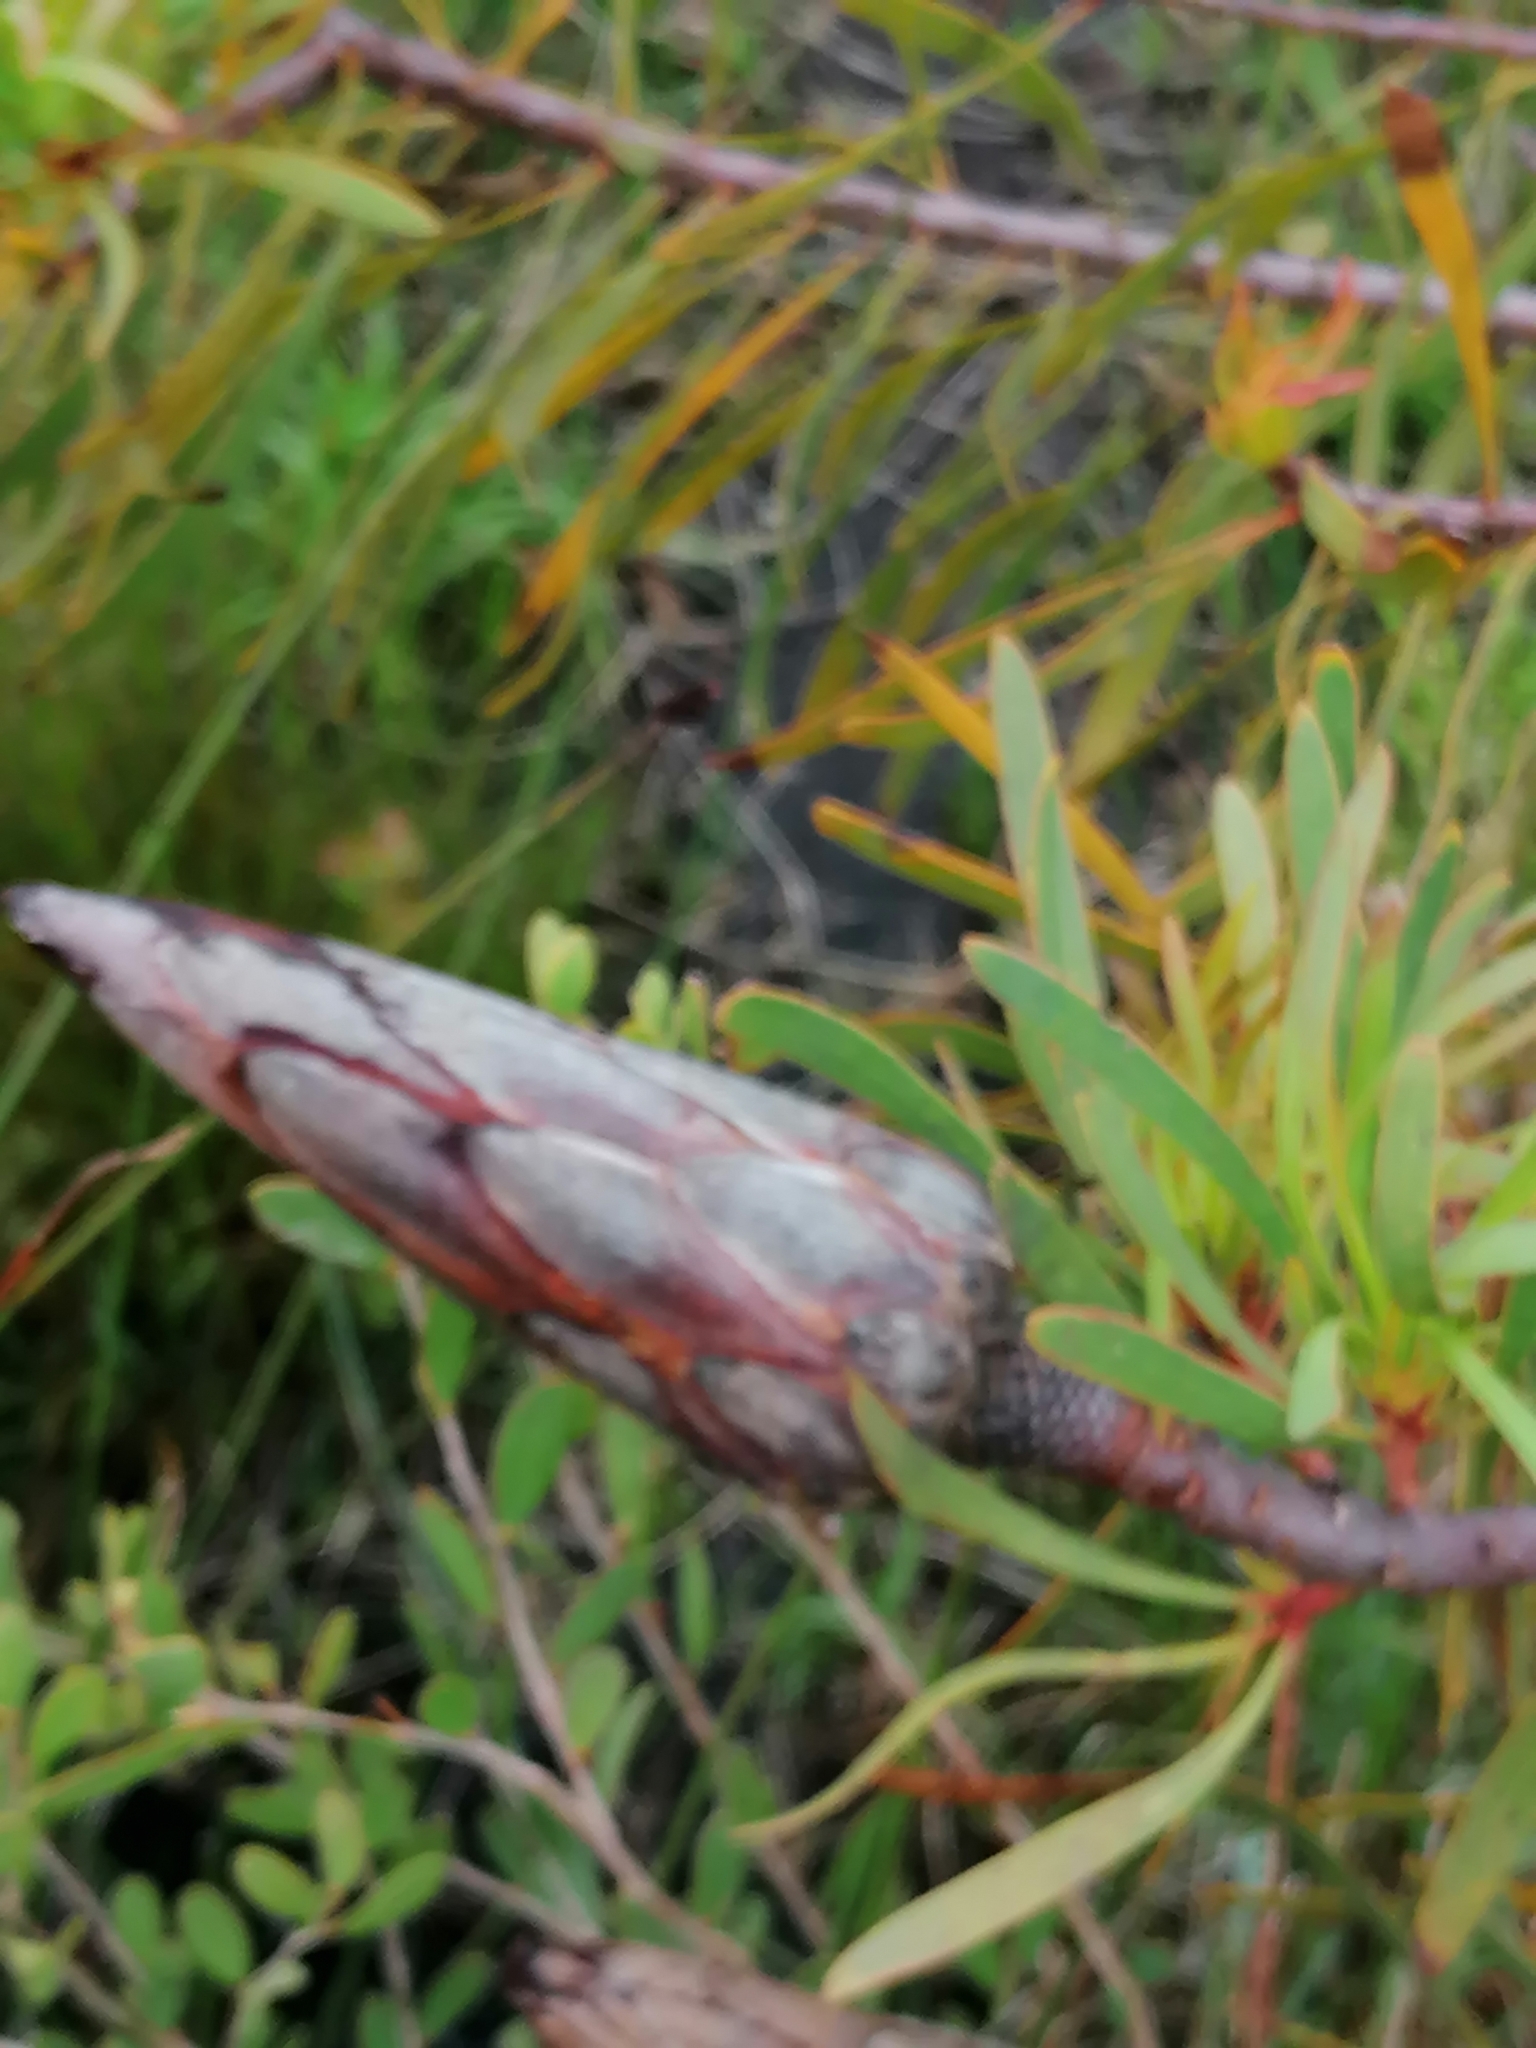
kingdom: Plantae
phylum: Tracheophyta
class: Magnoliopsida
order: Proteales
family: Proteaceae
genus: Protea
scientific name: Protea repens
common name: Sugarbush
